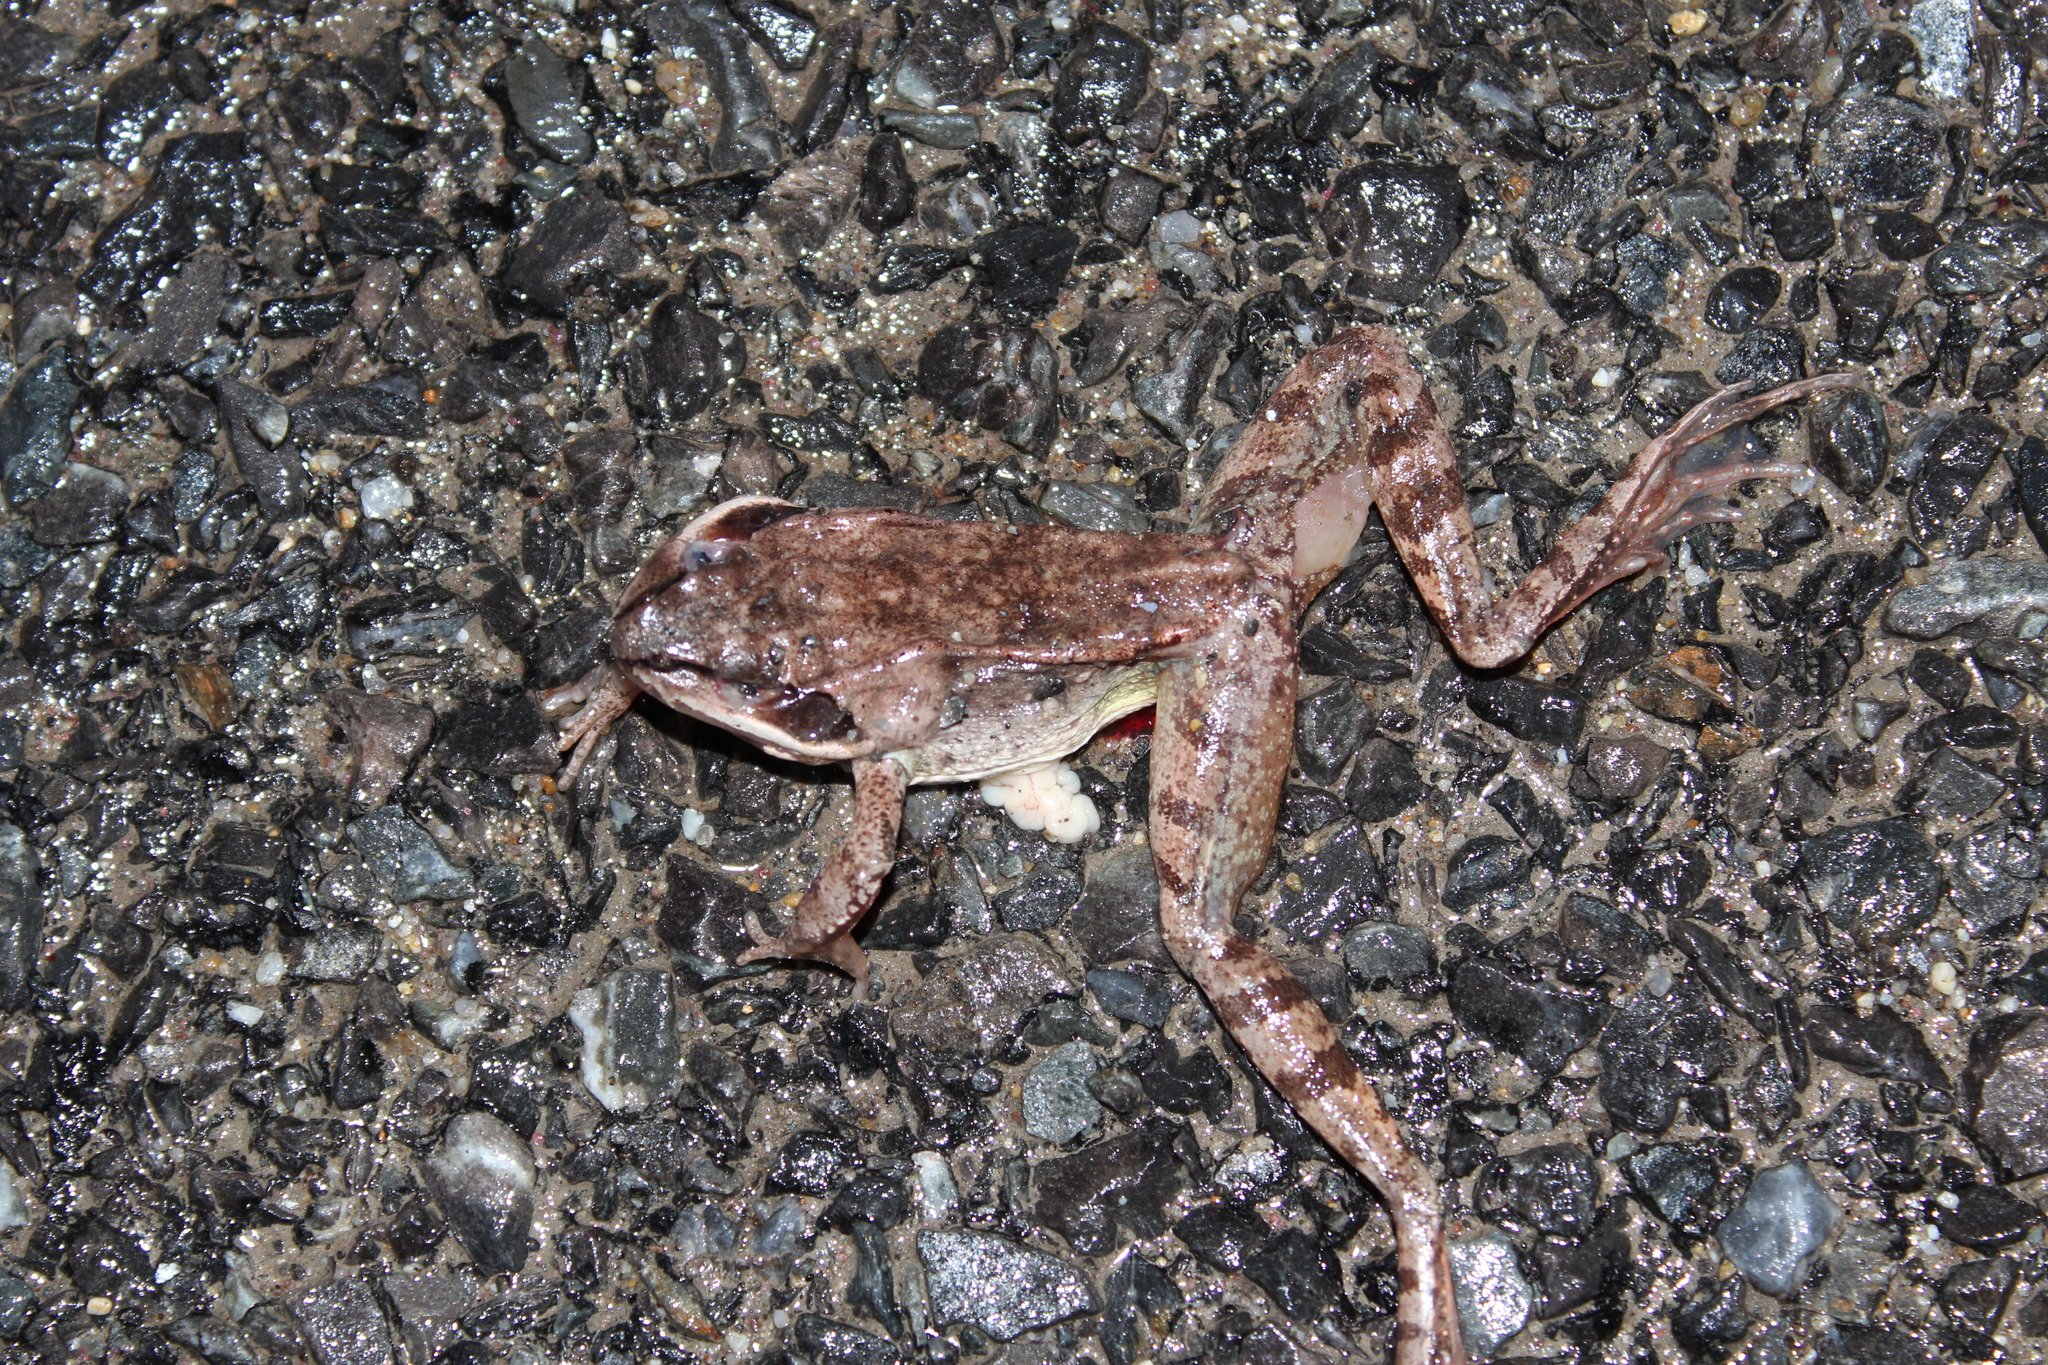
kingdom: Animalia
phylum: Chordata
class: Amphibia
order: Anura
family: Ranidae
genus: Lithobates
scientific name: Lithobates sylvaticus
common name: Wood frog
